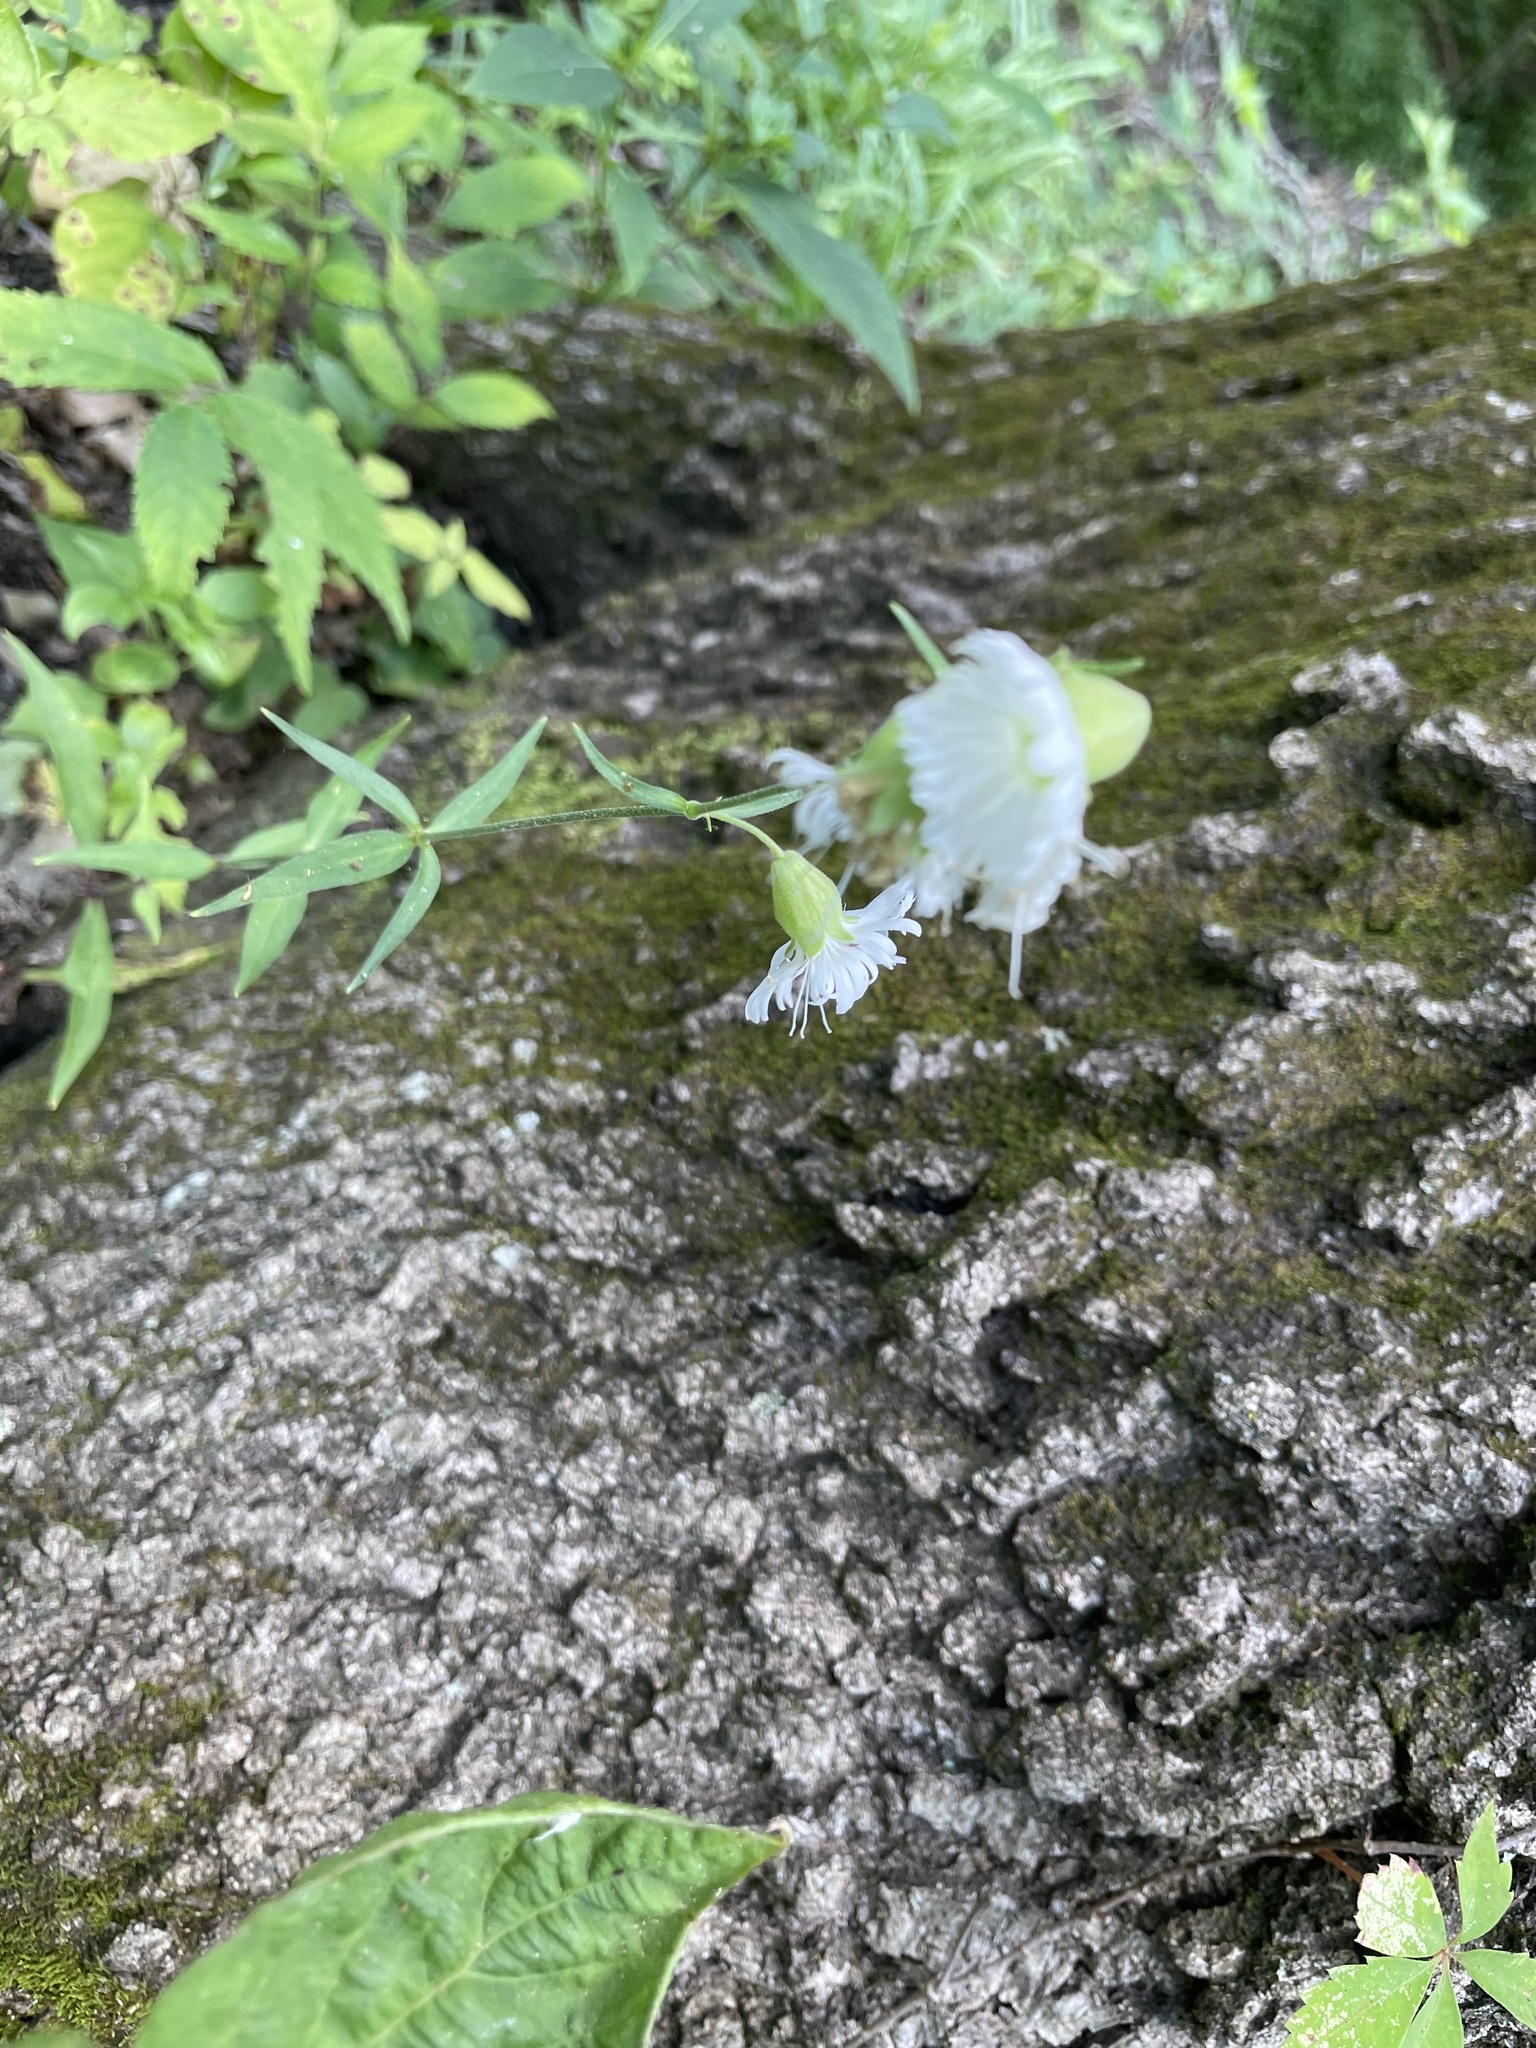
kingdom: Plantae
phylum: Tracheophyta
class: Magnoliopsida
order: Caryophyllales
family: Caryophyllaceae
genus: Silene
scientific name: Silene stellata
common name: Starry campion
